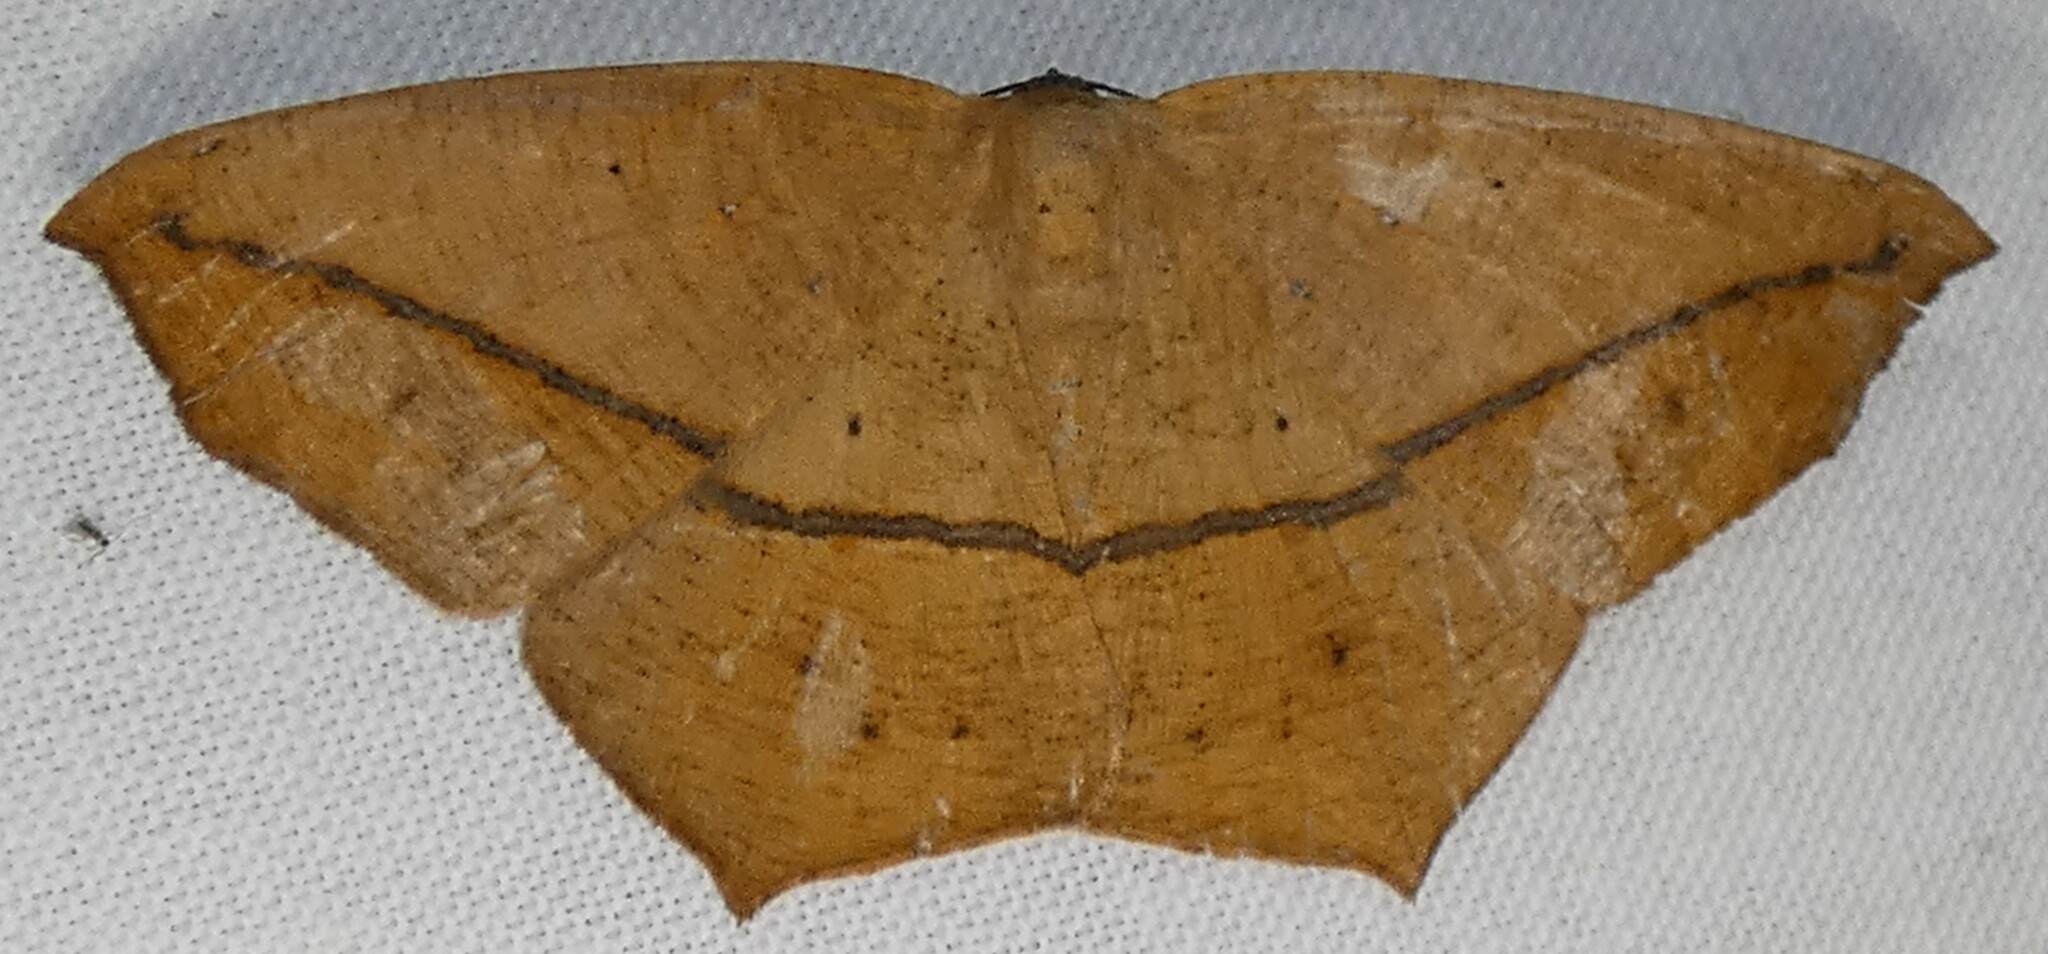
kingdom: Animalia
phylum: Arthropoda
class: Insecta
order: Lepidoptera
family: Geometridae
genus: Prochoerodes
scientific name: Prochoerodes lineola
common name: Large maple spanworm
